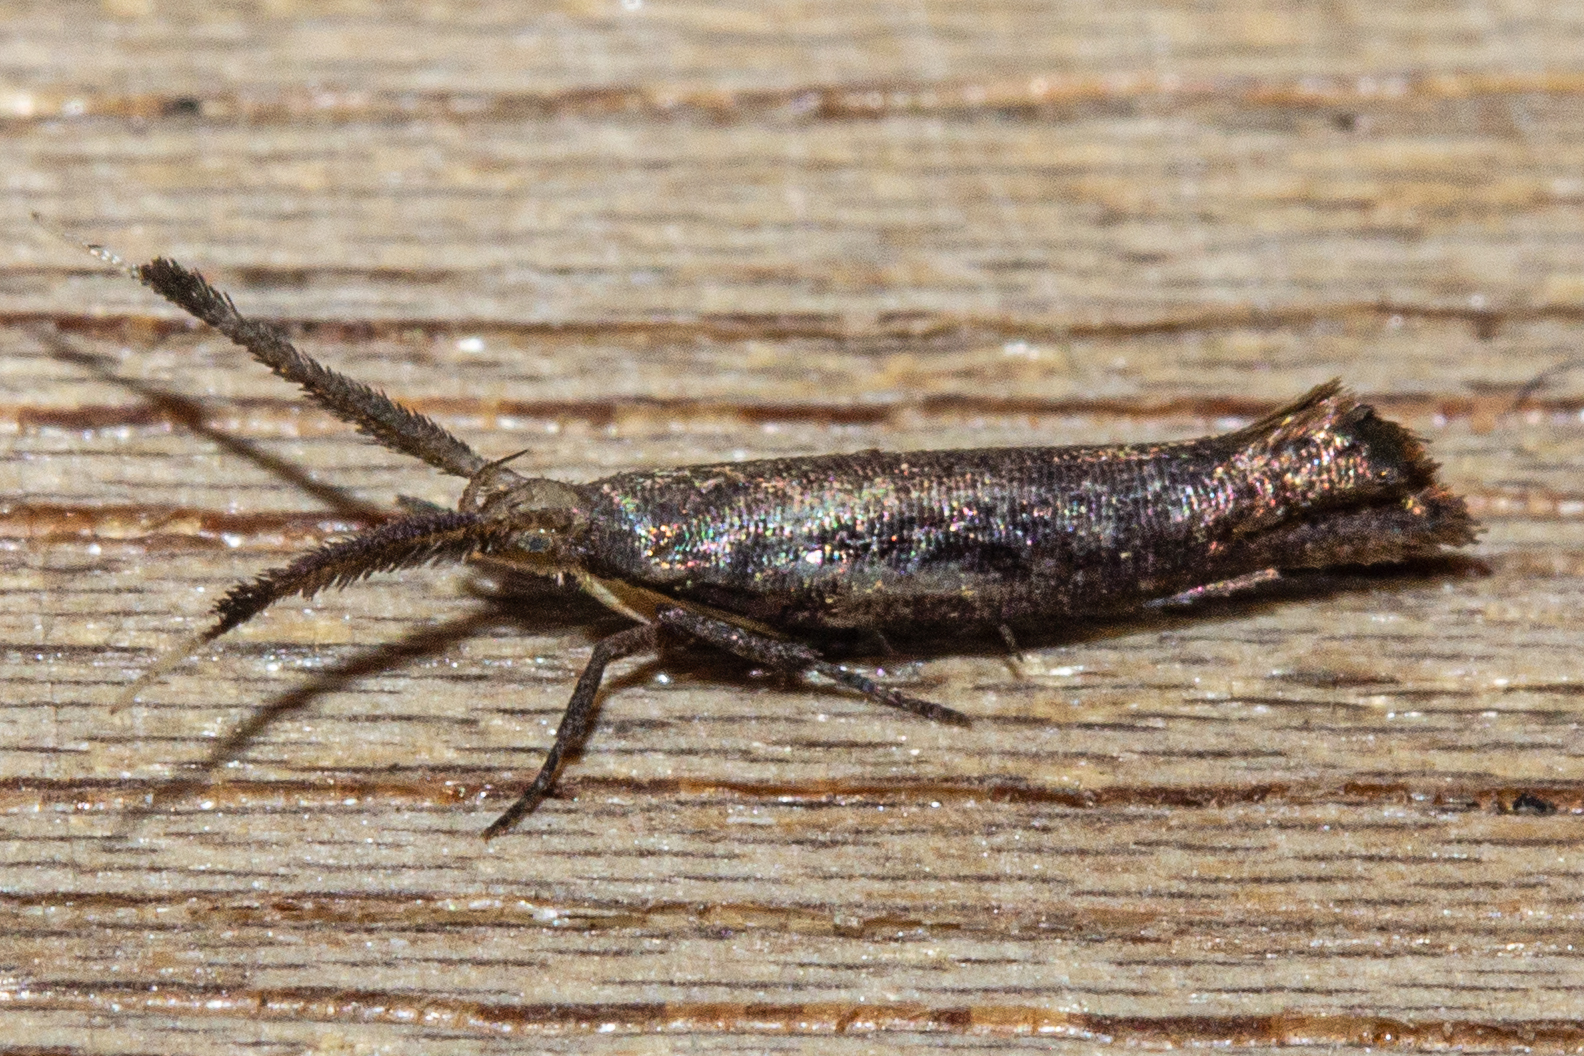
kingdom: Animalia
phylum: Arthropoda
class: Insecta
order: Lepidoptera
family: Plutellidae
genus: Protosynaema
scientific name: Protosynaema steropucha
